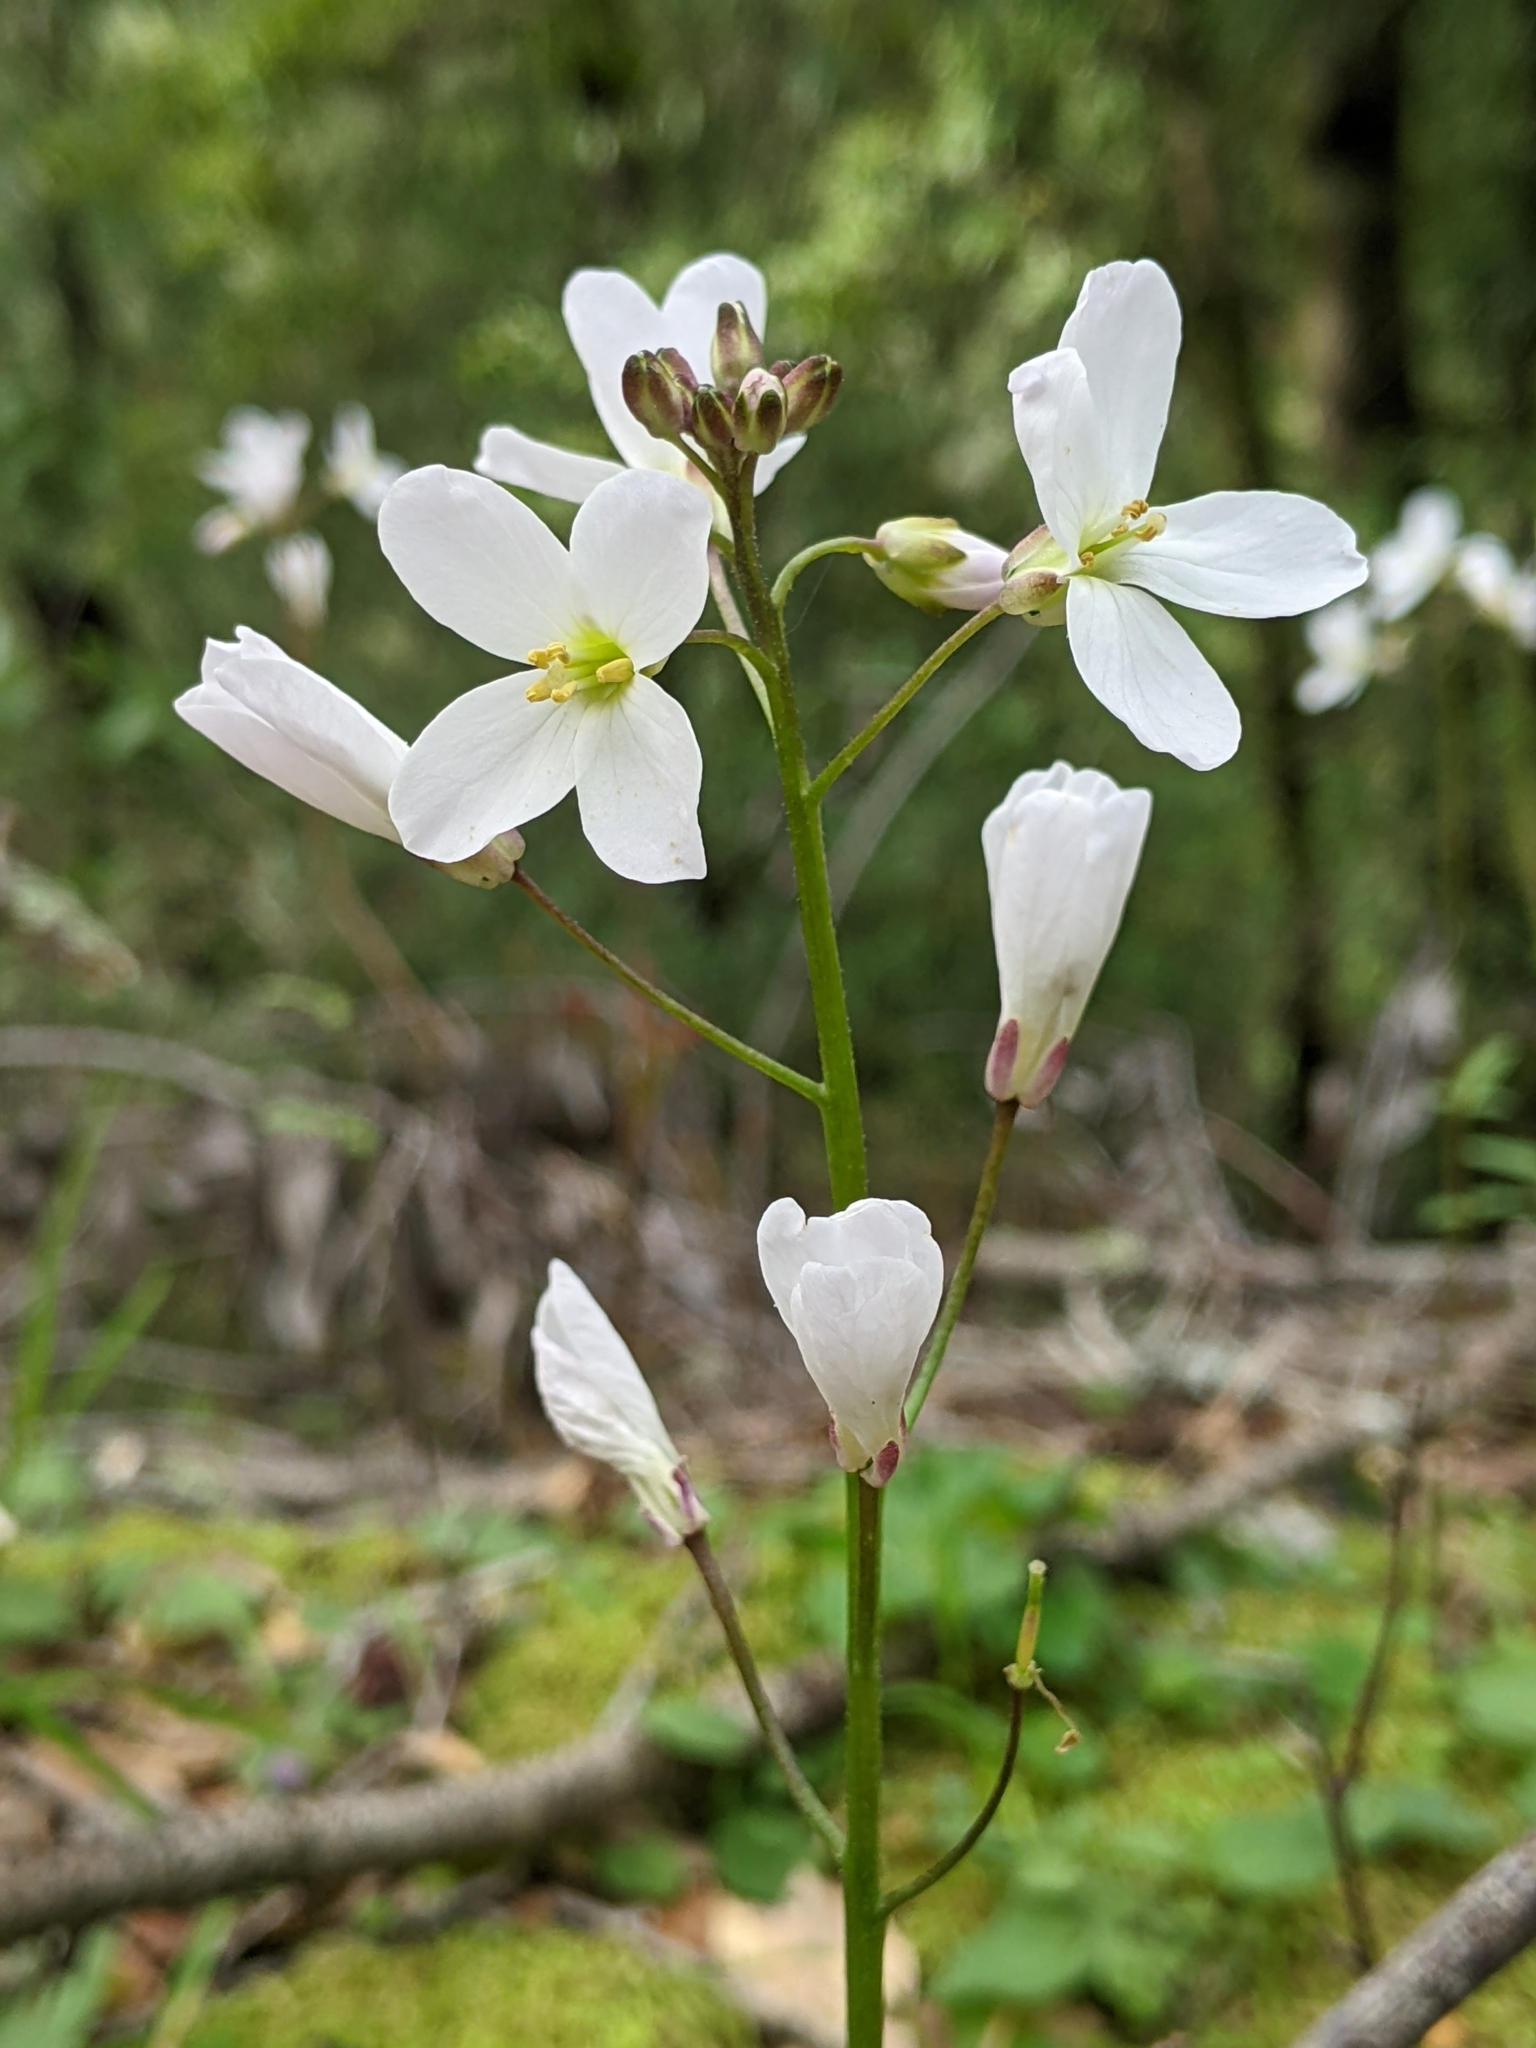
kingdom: Plantae
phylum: Tracheophyta
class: Magnoliopsida
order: Brassicales
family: Brassicaceae
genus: Cardamine
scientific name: Cardamine californica
